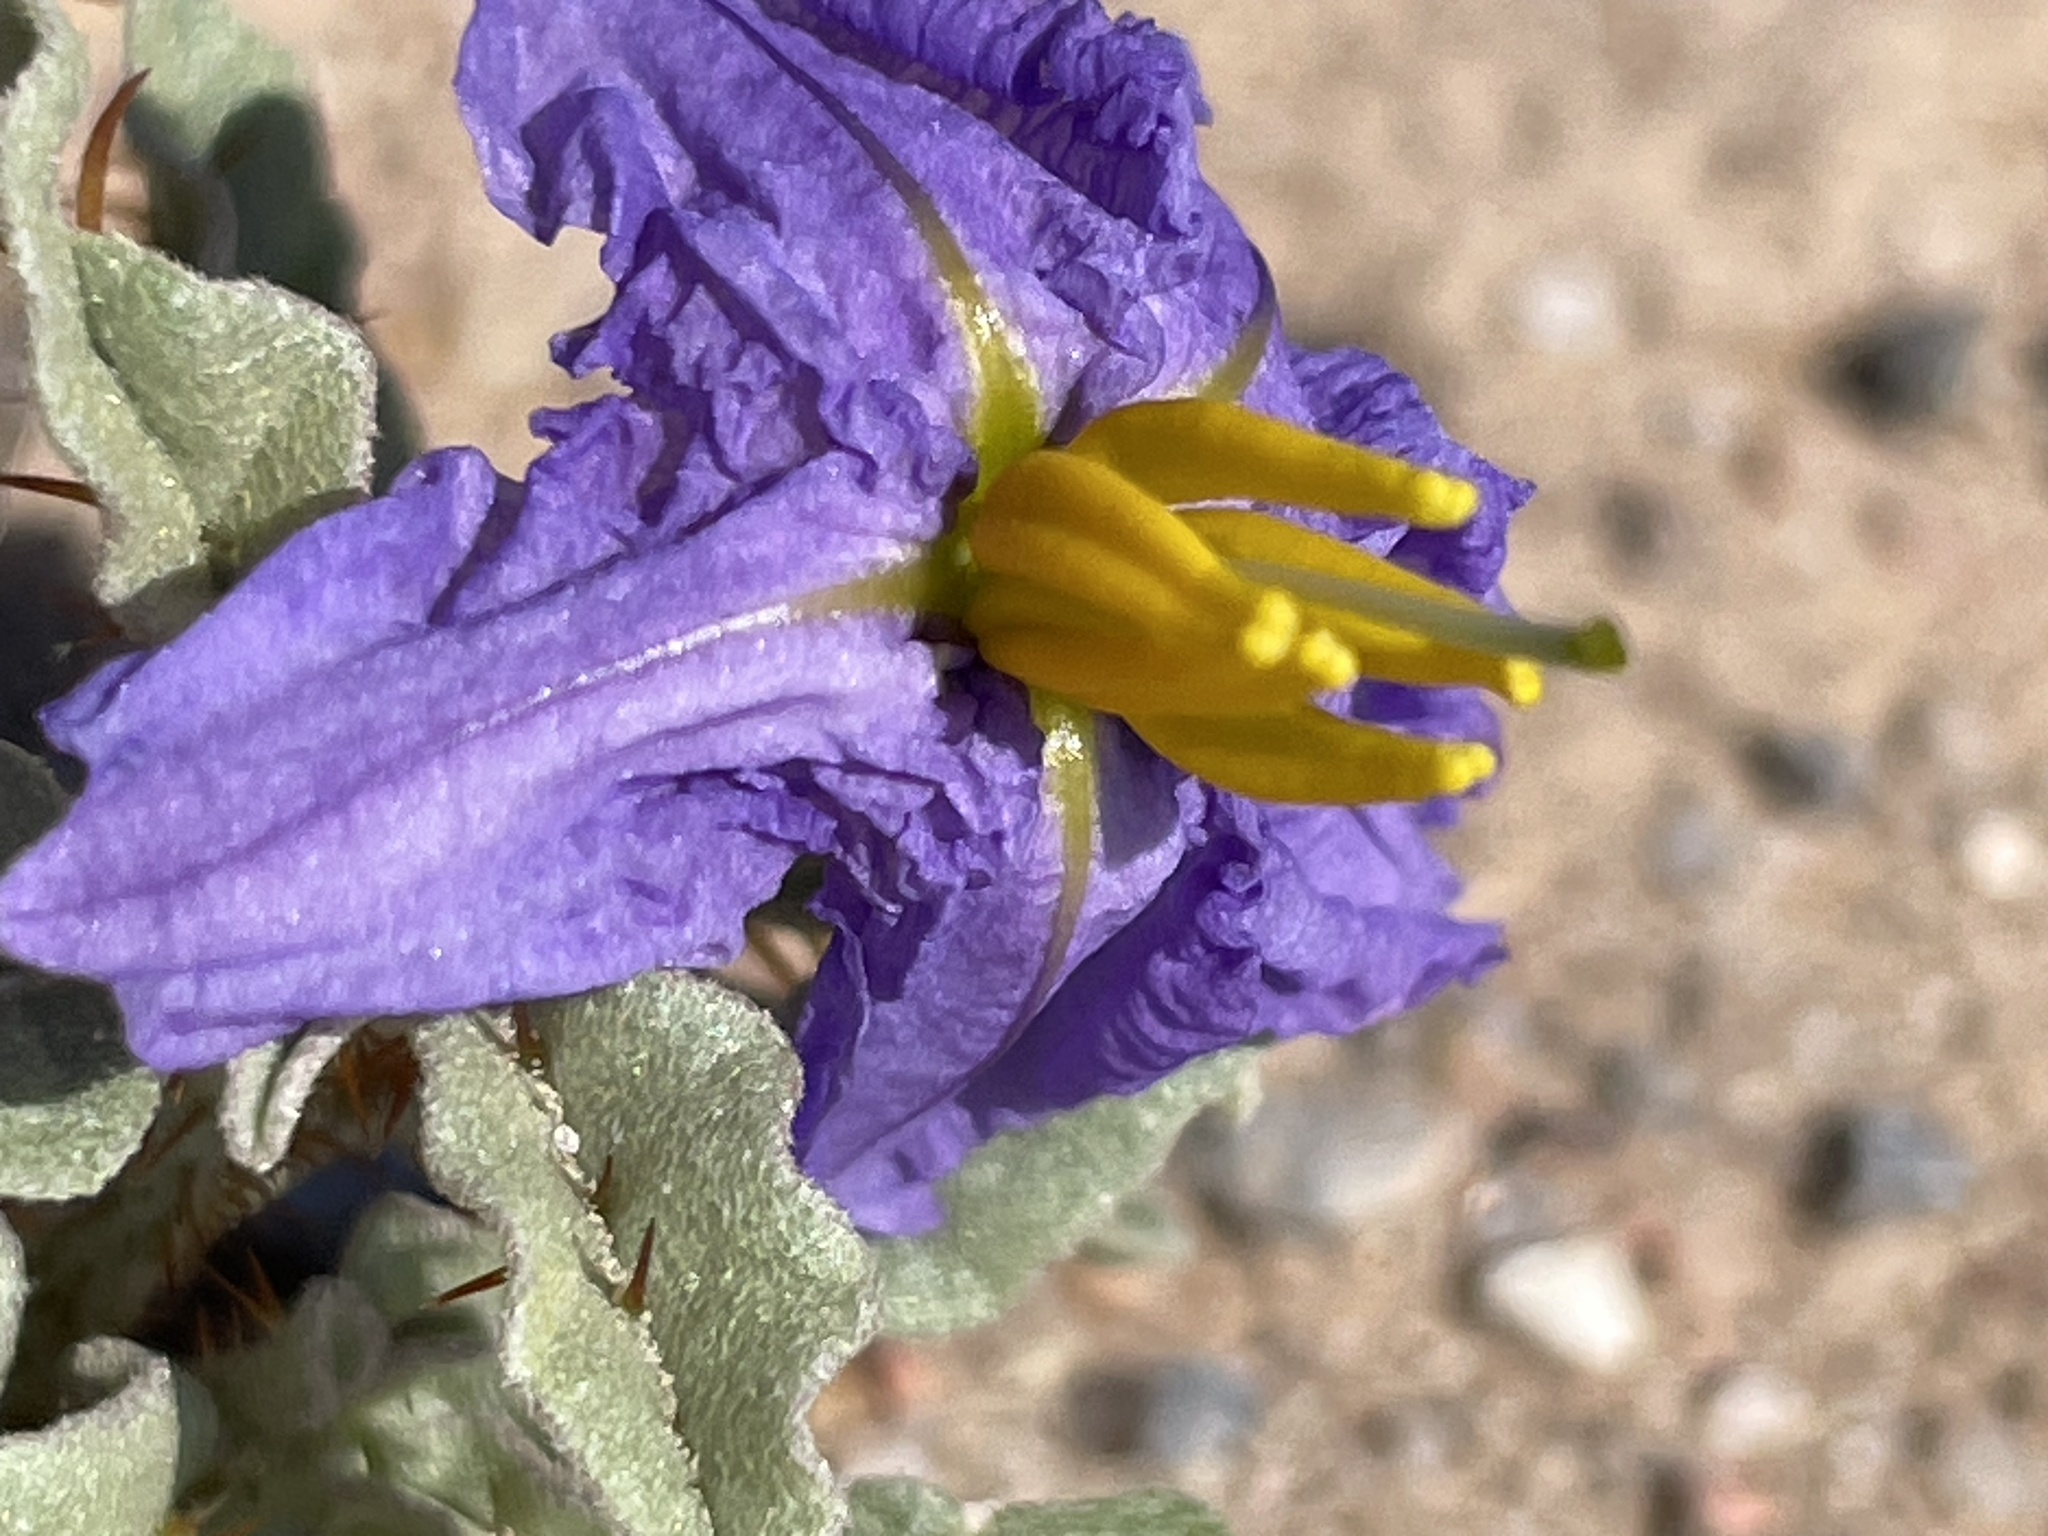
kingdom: Plantae
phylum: Tracheophyta
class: Magnoliopsida
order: Solanales
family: Solanaceae
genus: Solanum
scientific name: Solanum elaeagnifolium
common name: Silverleaf nightshade
